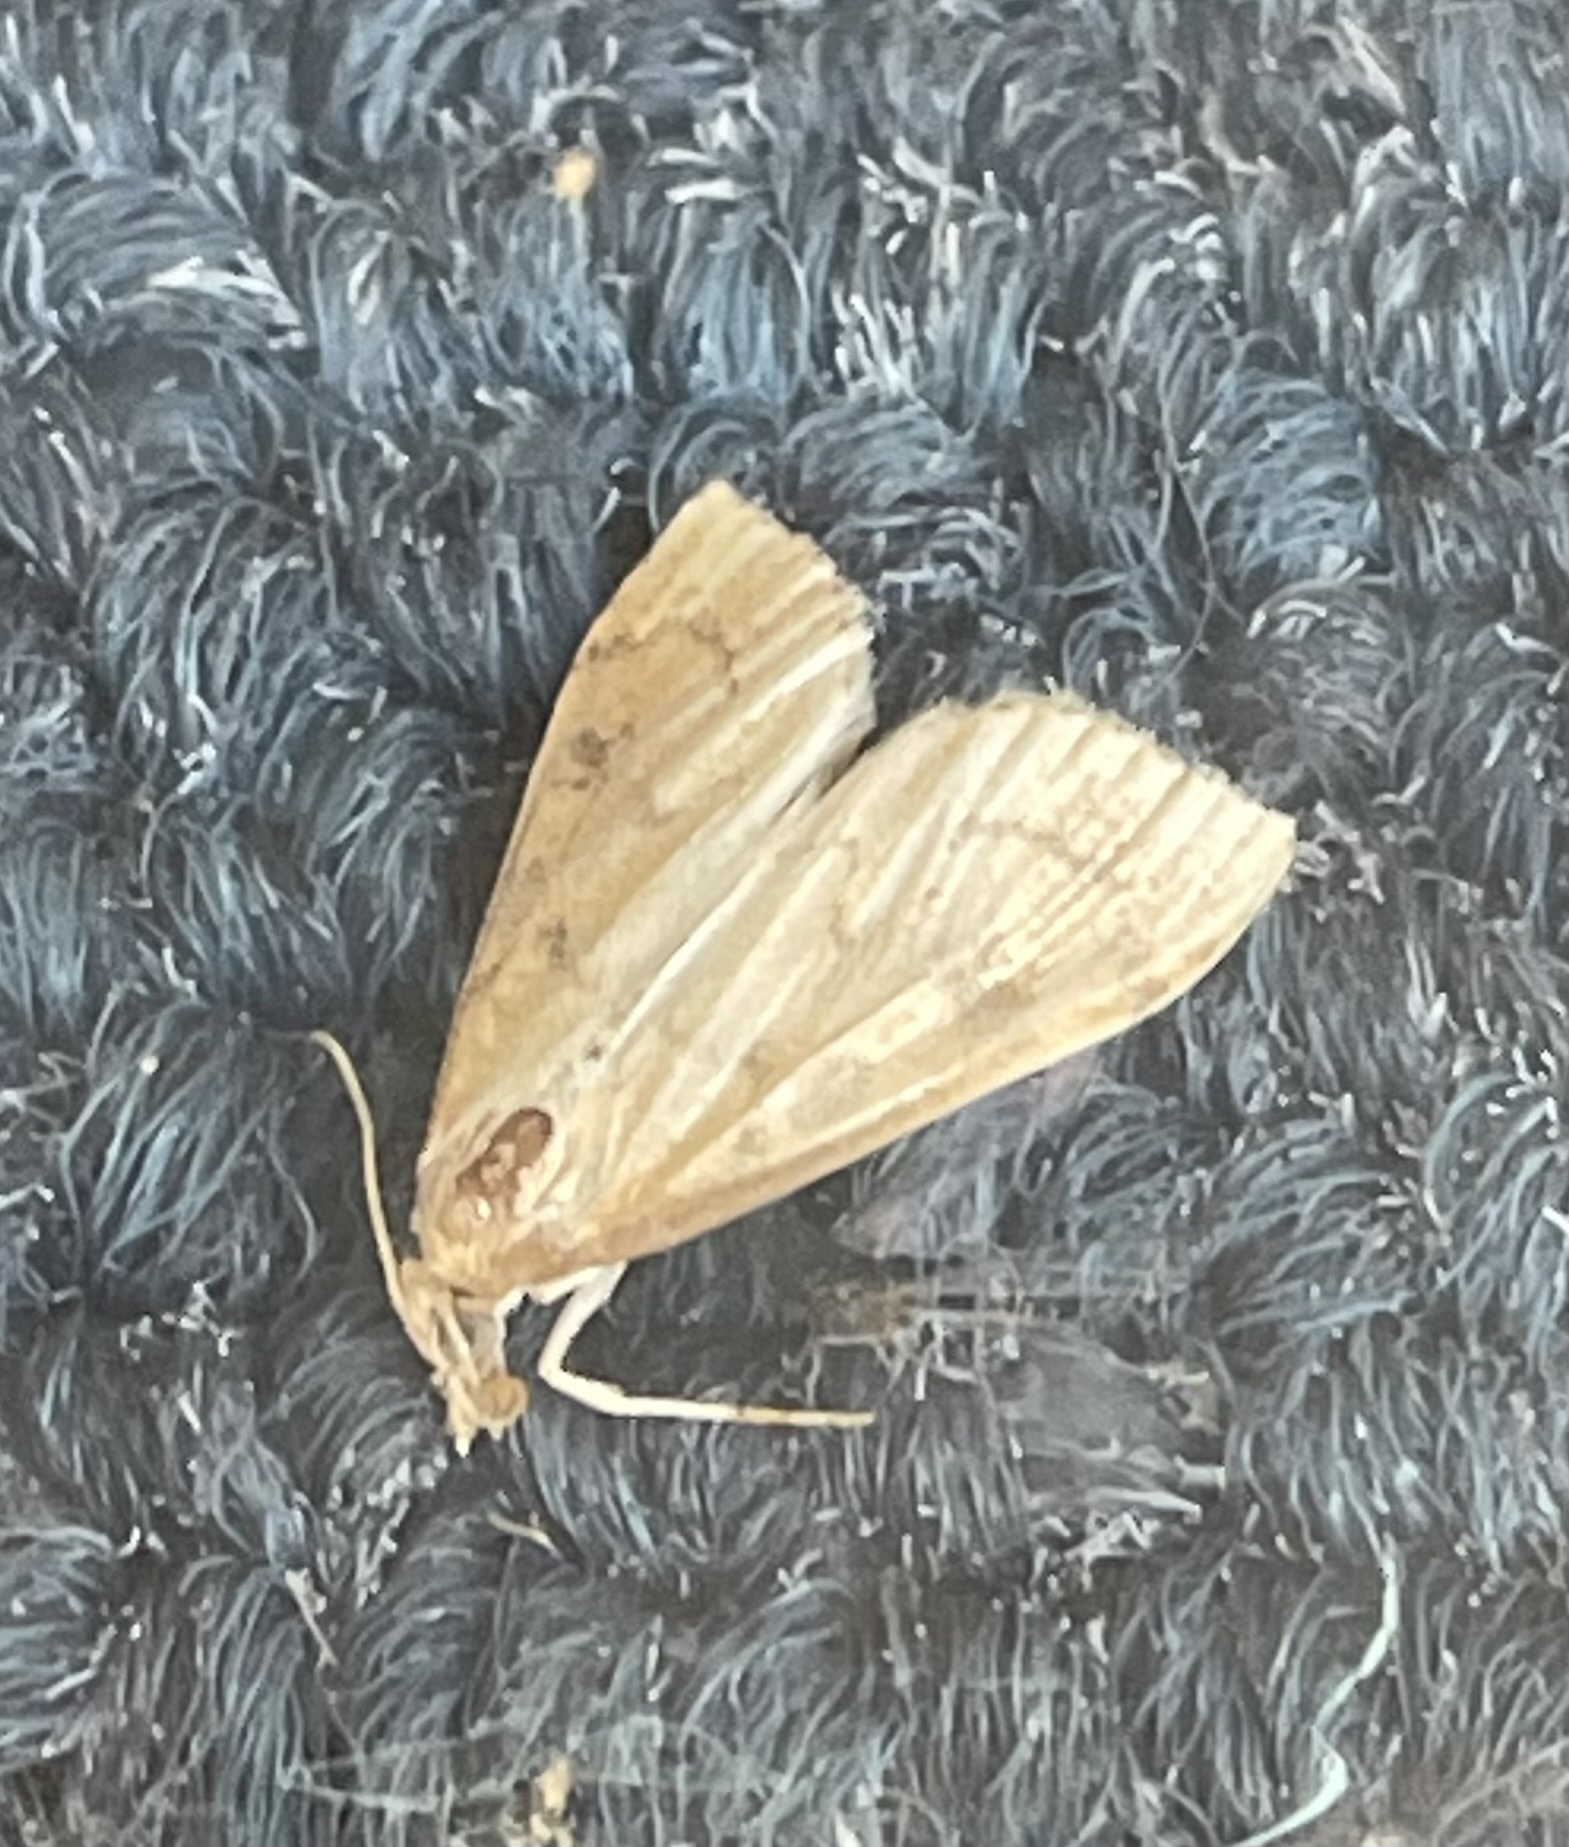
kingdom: Animalia
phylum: Arthropoda
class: Insecta
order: Lepidoptera
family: Crambidae
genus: Udea
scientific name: Udea rubigalis
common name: Celery leaftier moth
